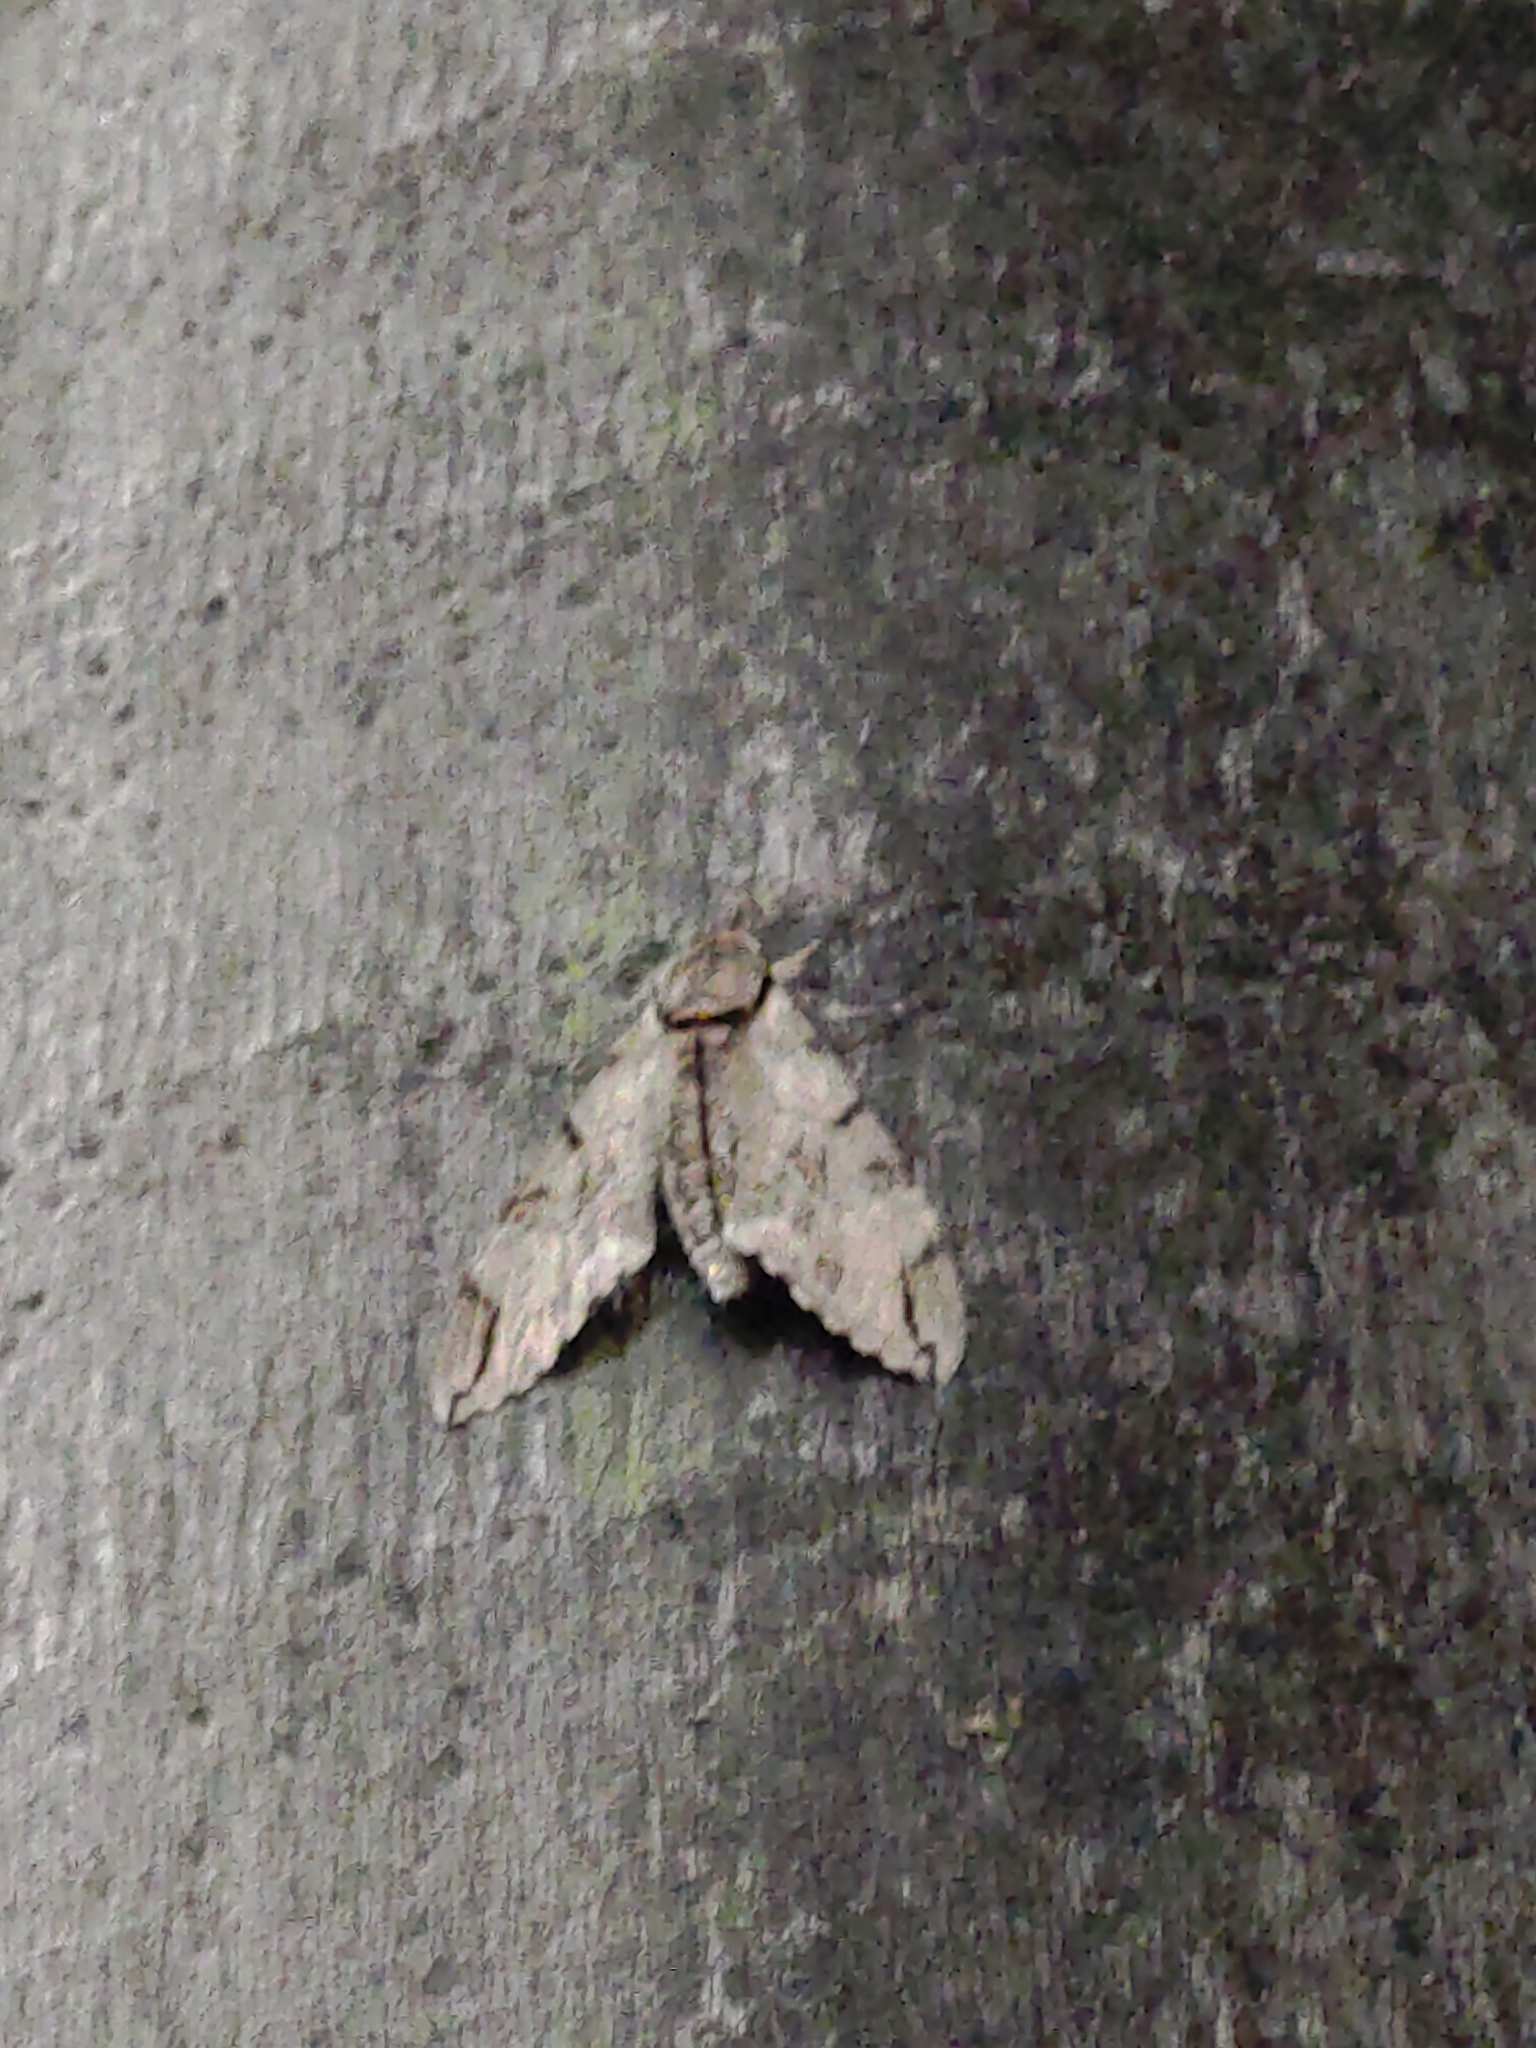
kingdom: Animalia
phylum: Arthropoda
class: Insecta
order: Lepidoptera
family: Sphingidae
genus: Psilogramma
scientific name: Psilogramma increta
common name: Gray hawk moth
